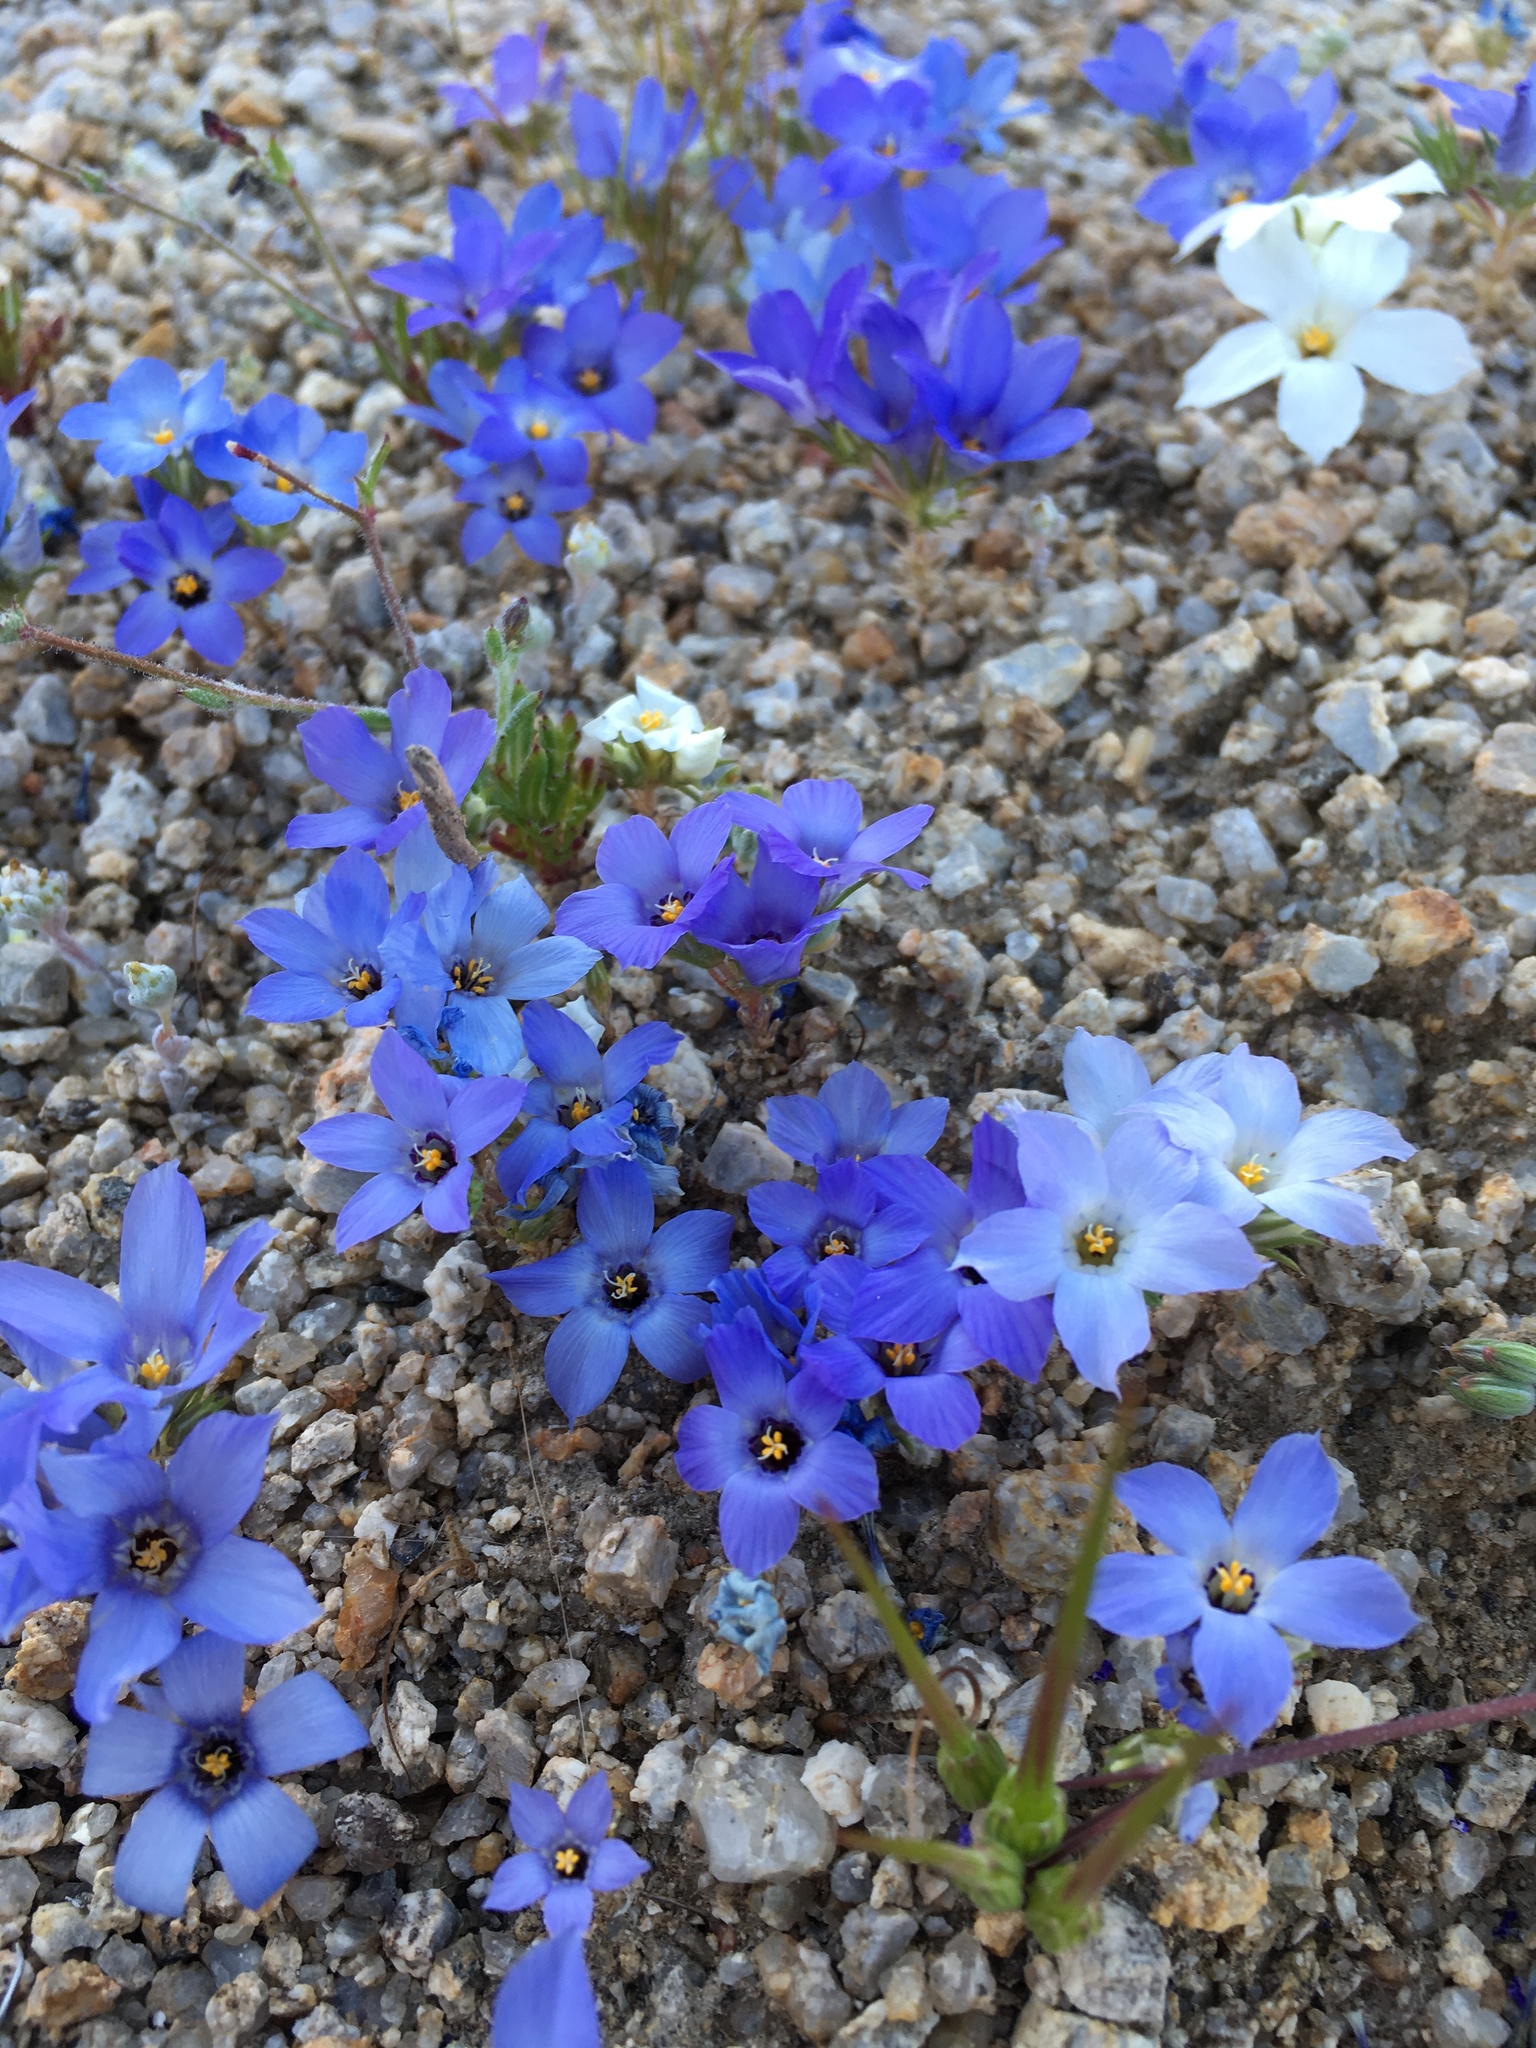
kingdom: Plantae
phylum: Tracheophyta
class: Magnoliopsida
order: Ericales
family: Polemoniaceae
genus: Linanthus
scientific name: Linanthus parryae
